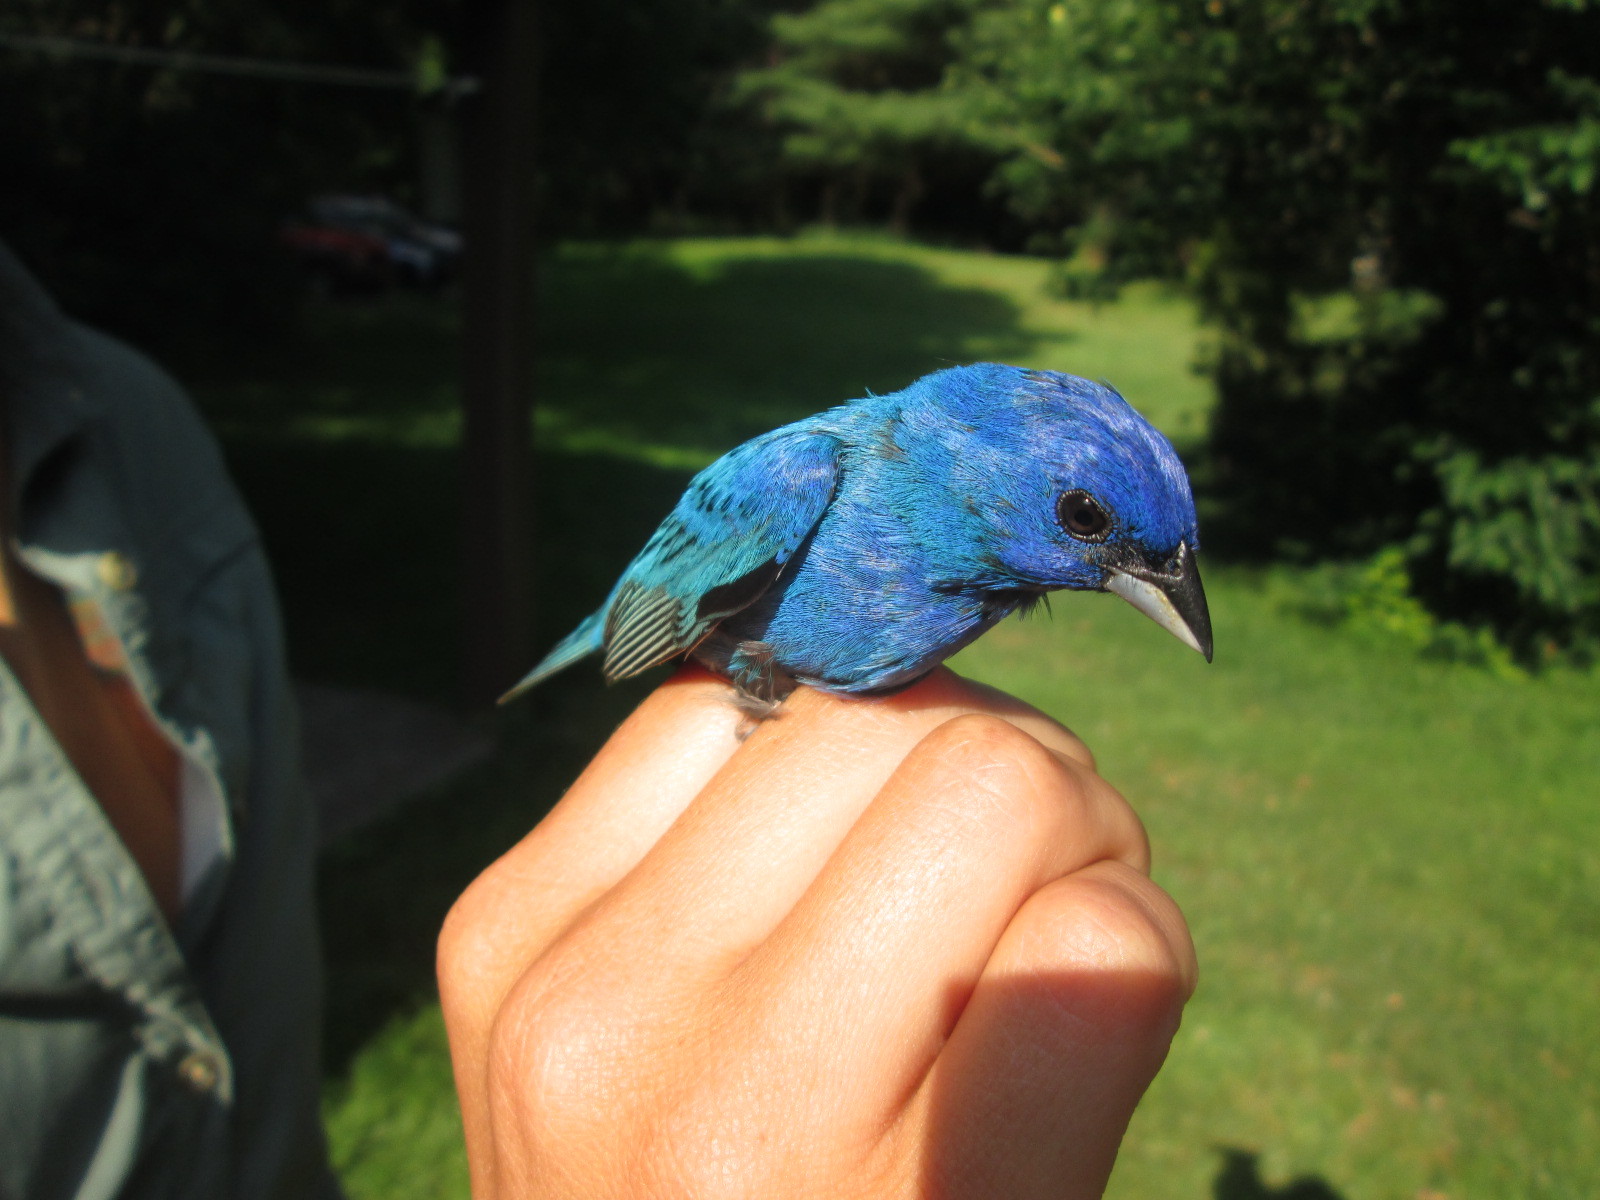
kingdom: Animalia
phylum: Chordata
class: Aves
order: Passeriformes
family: Cardinalidae
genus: Passerina
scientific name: Passerina cyanea
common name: Indigo bunting
